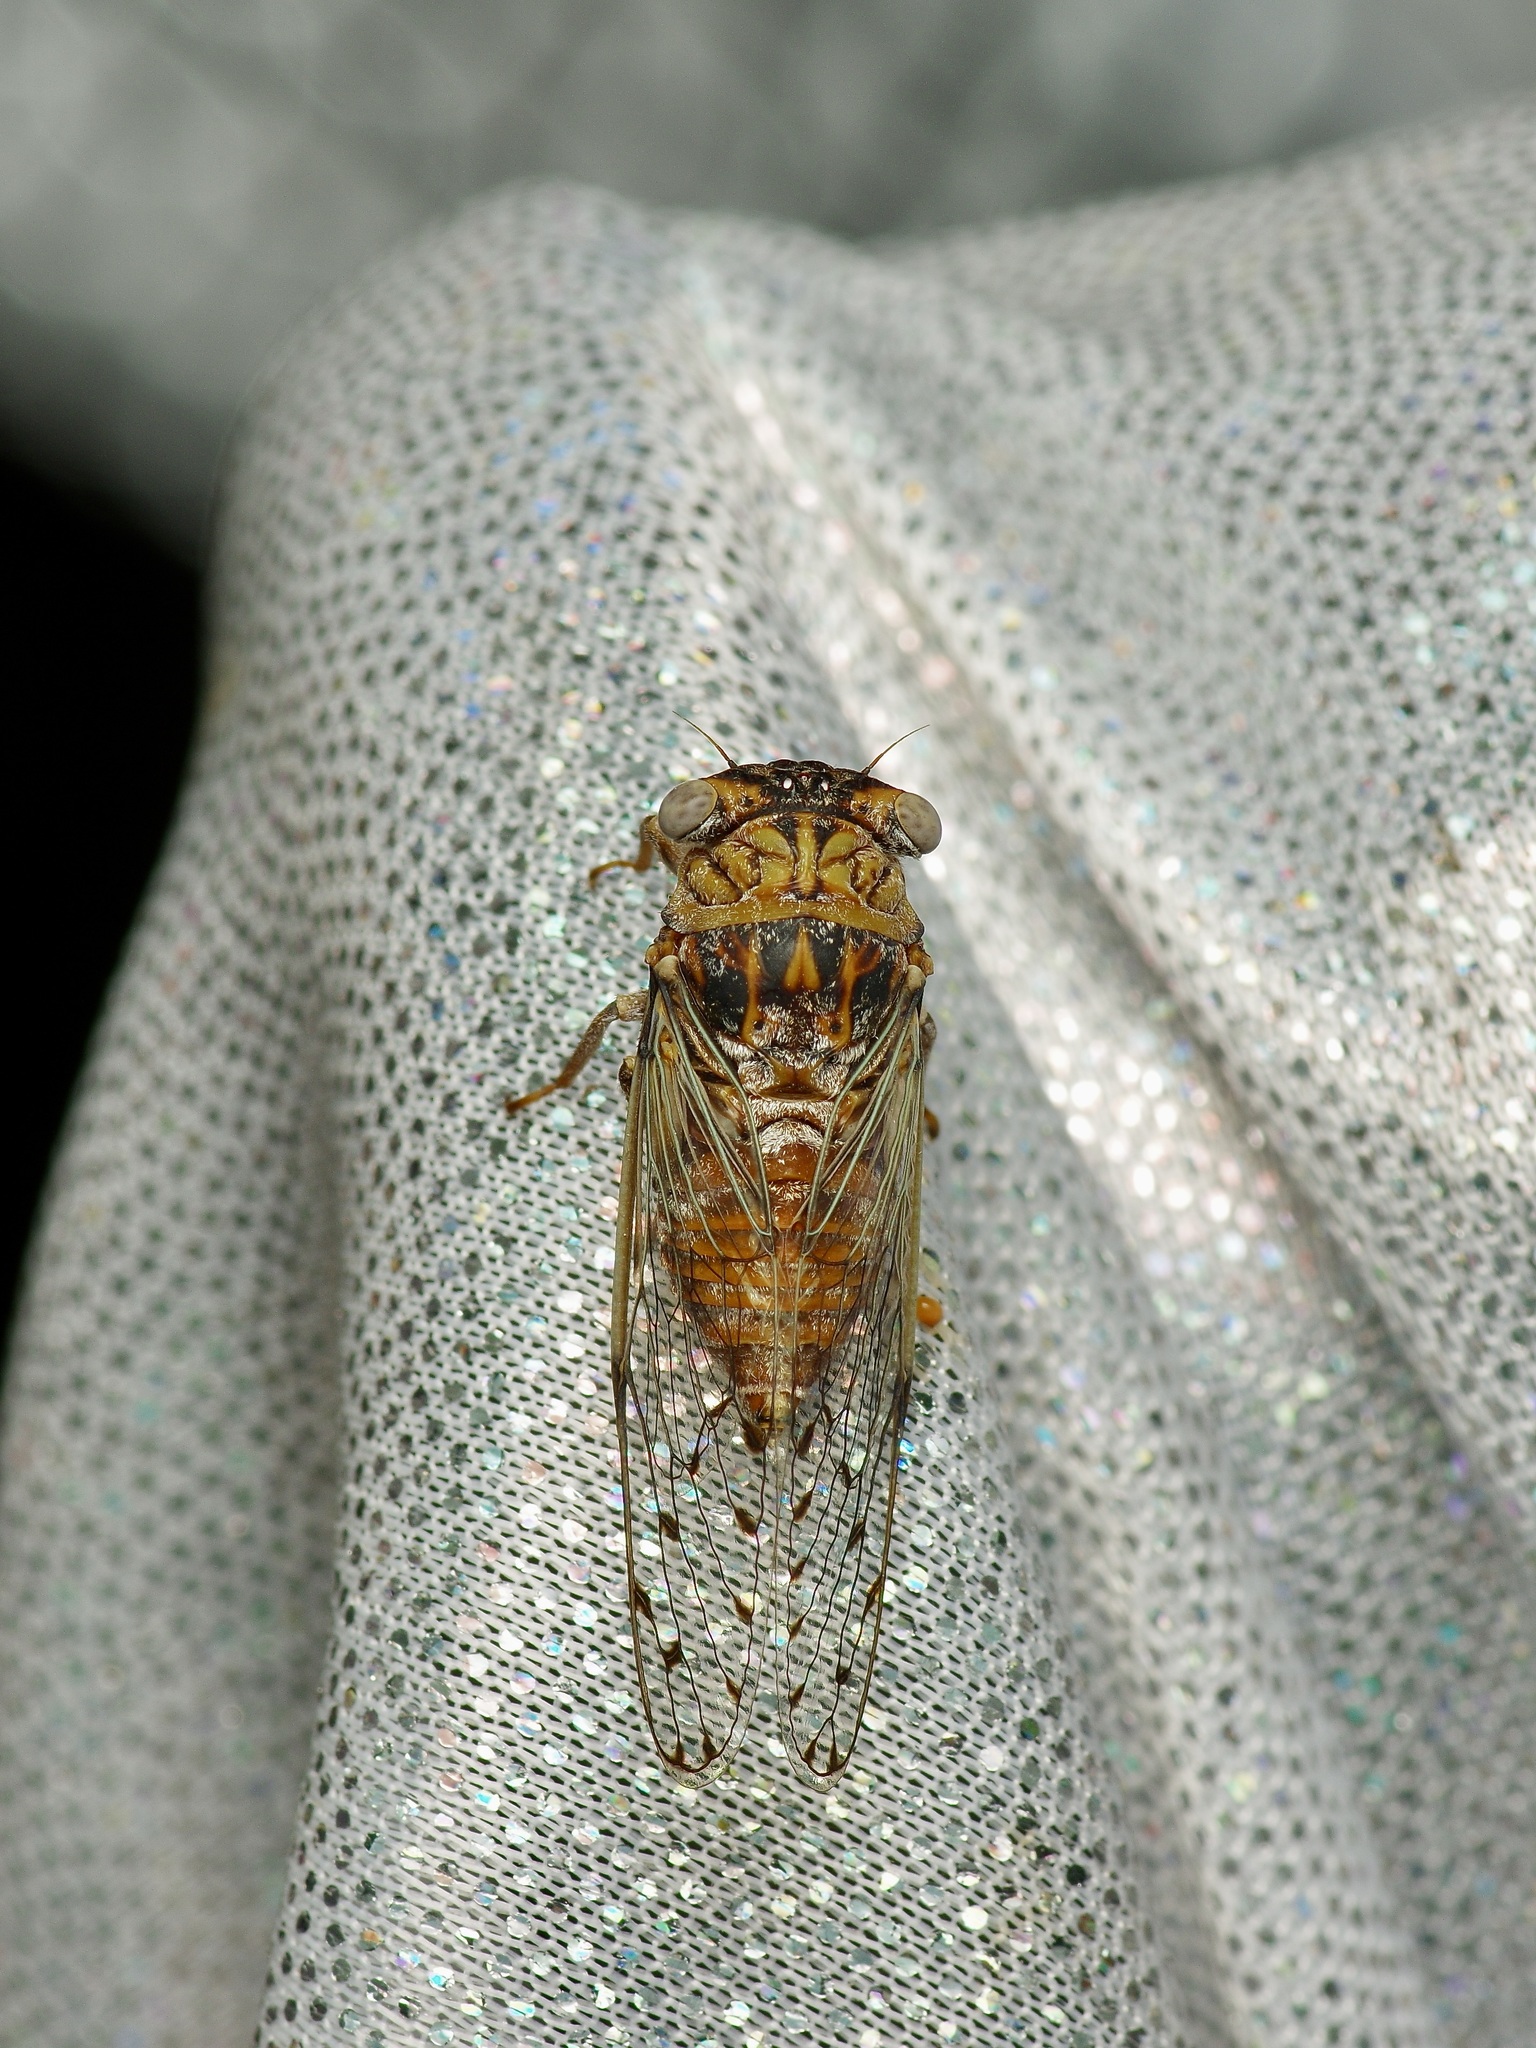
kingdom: Animalia
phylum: Arthropoda
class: Insecta
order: Hemiptera
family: Cicadidae
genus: Pacarina
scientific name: Pacarina puella
